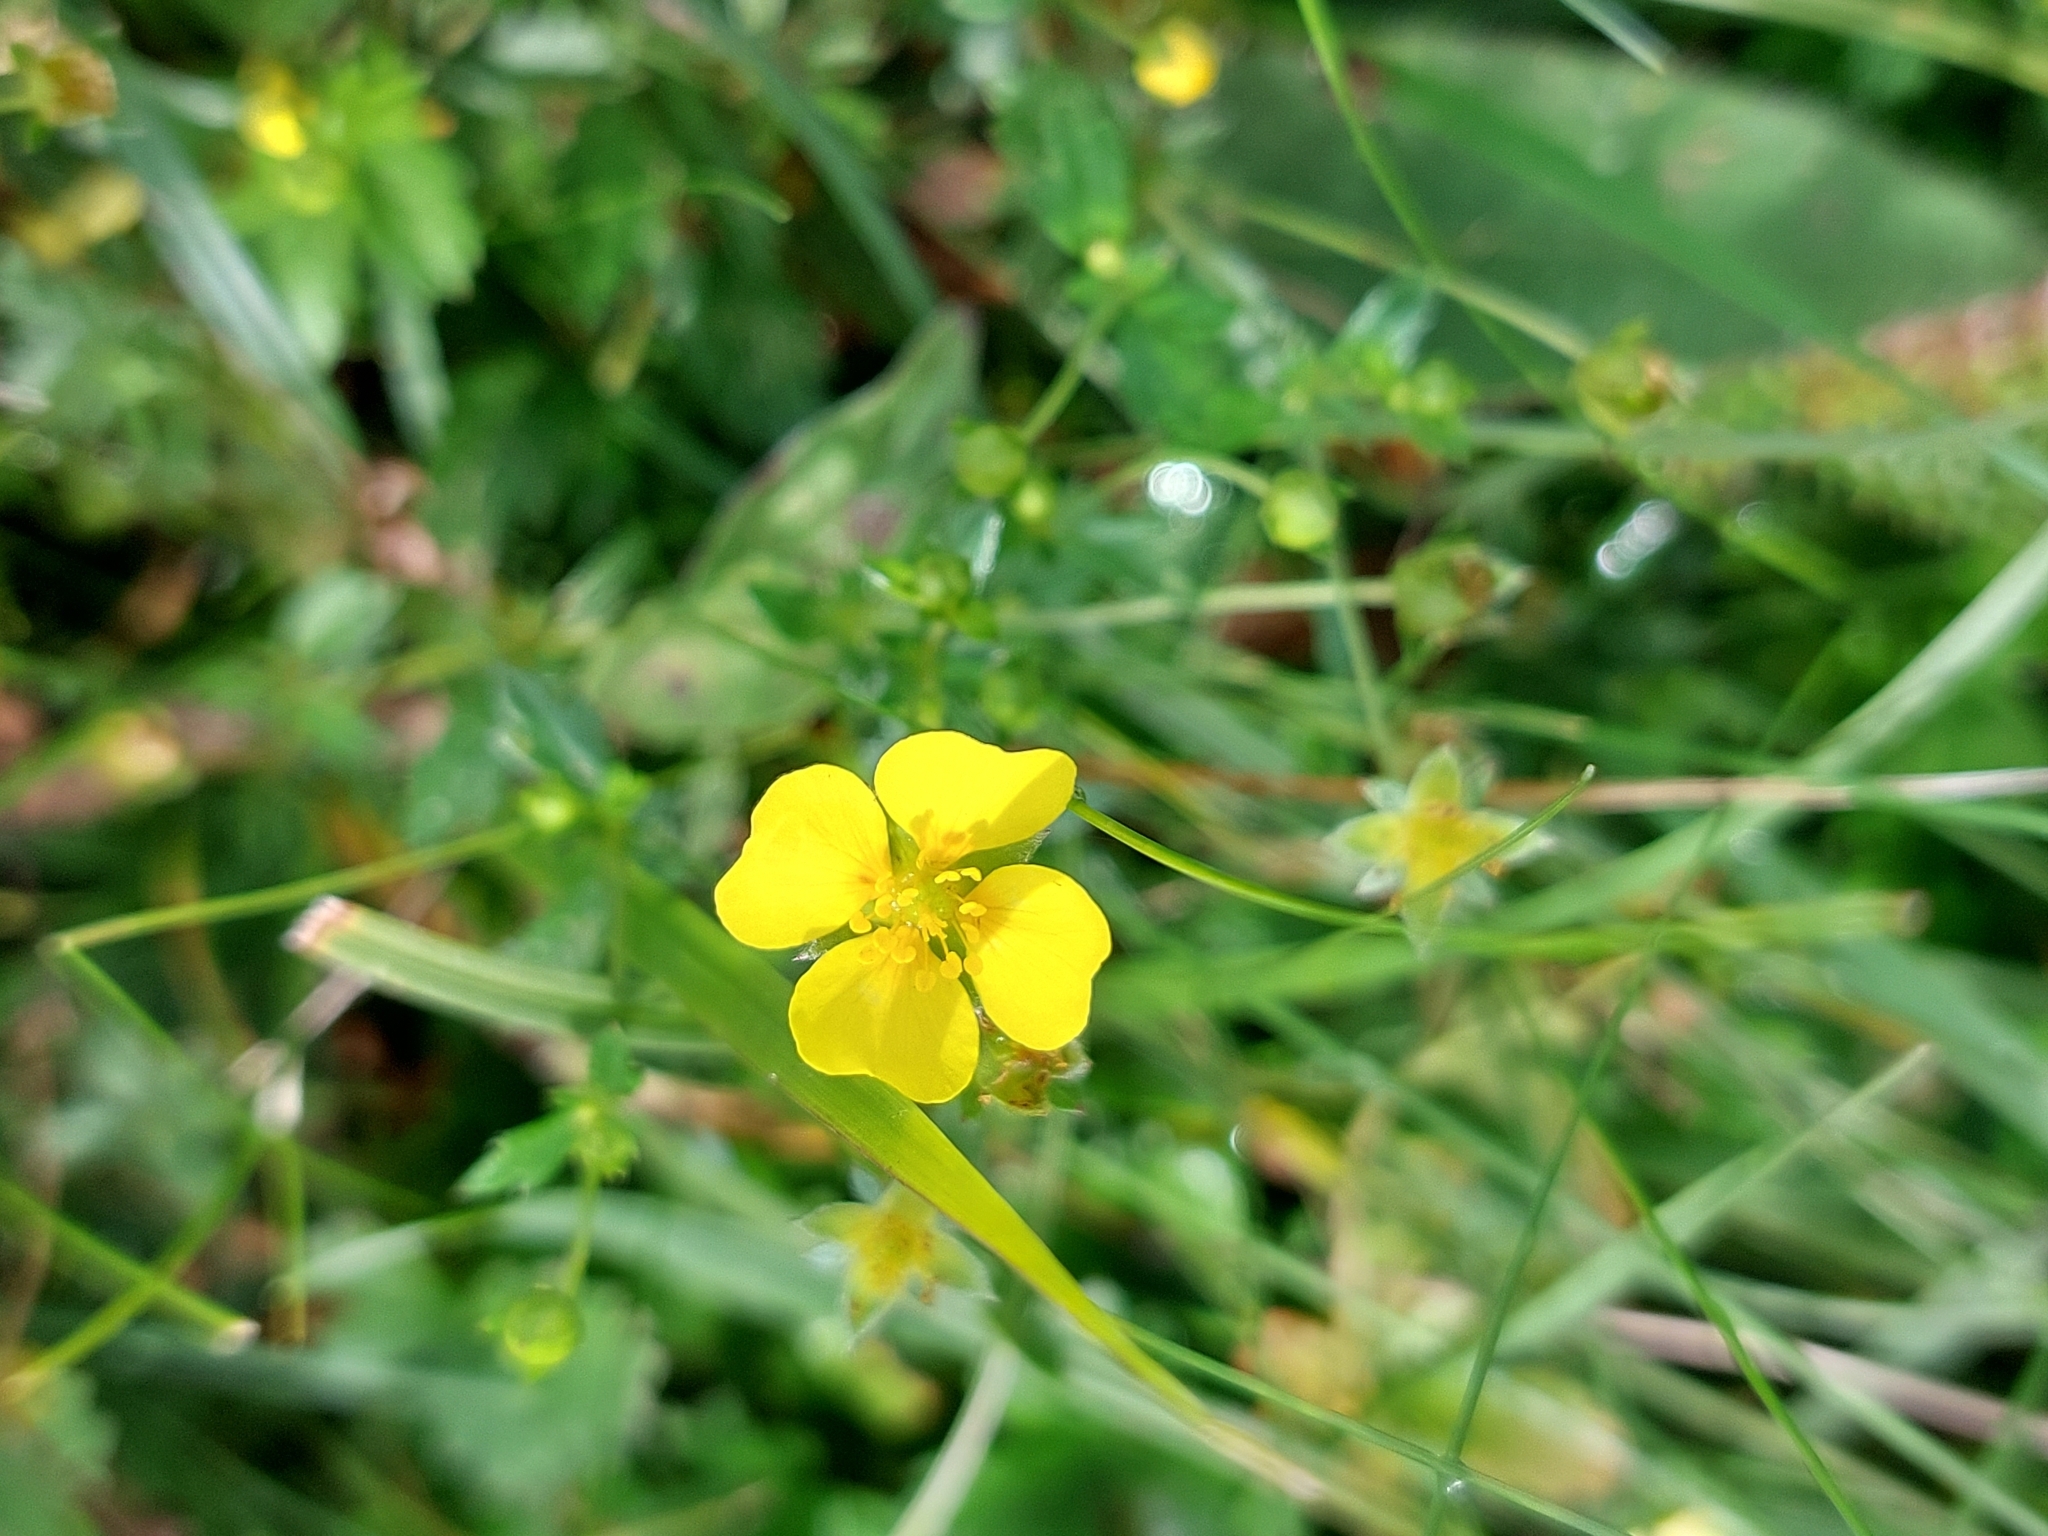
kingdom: Plantae
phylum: Tracheophyta
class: Magnoliopsida
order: Rosales
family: Rosaceae
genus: Potentilla
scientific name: Potentilla erecta
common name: Tormentil
